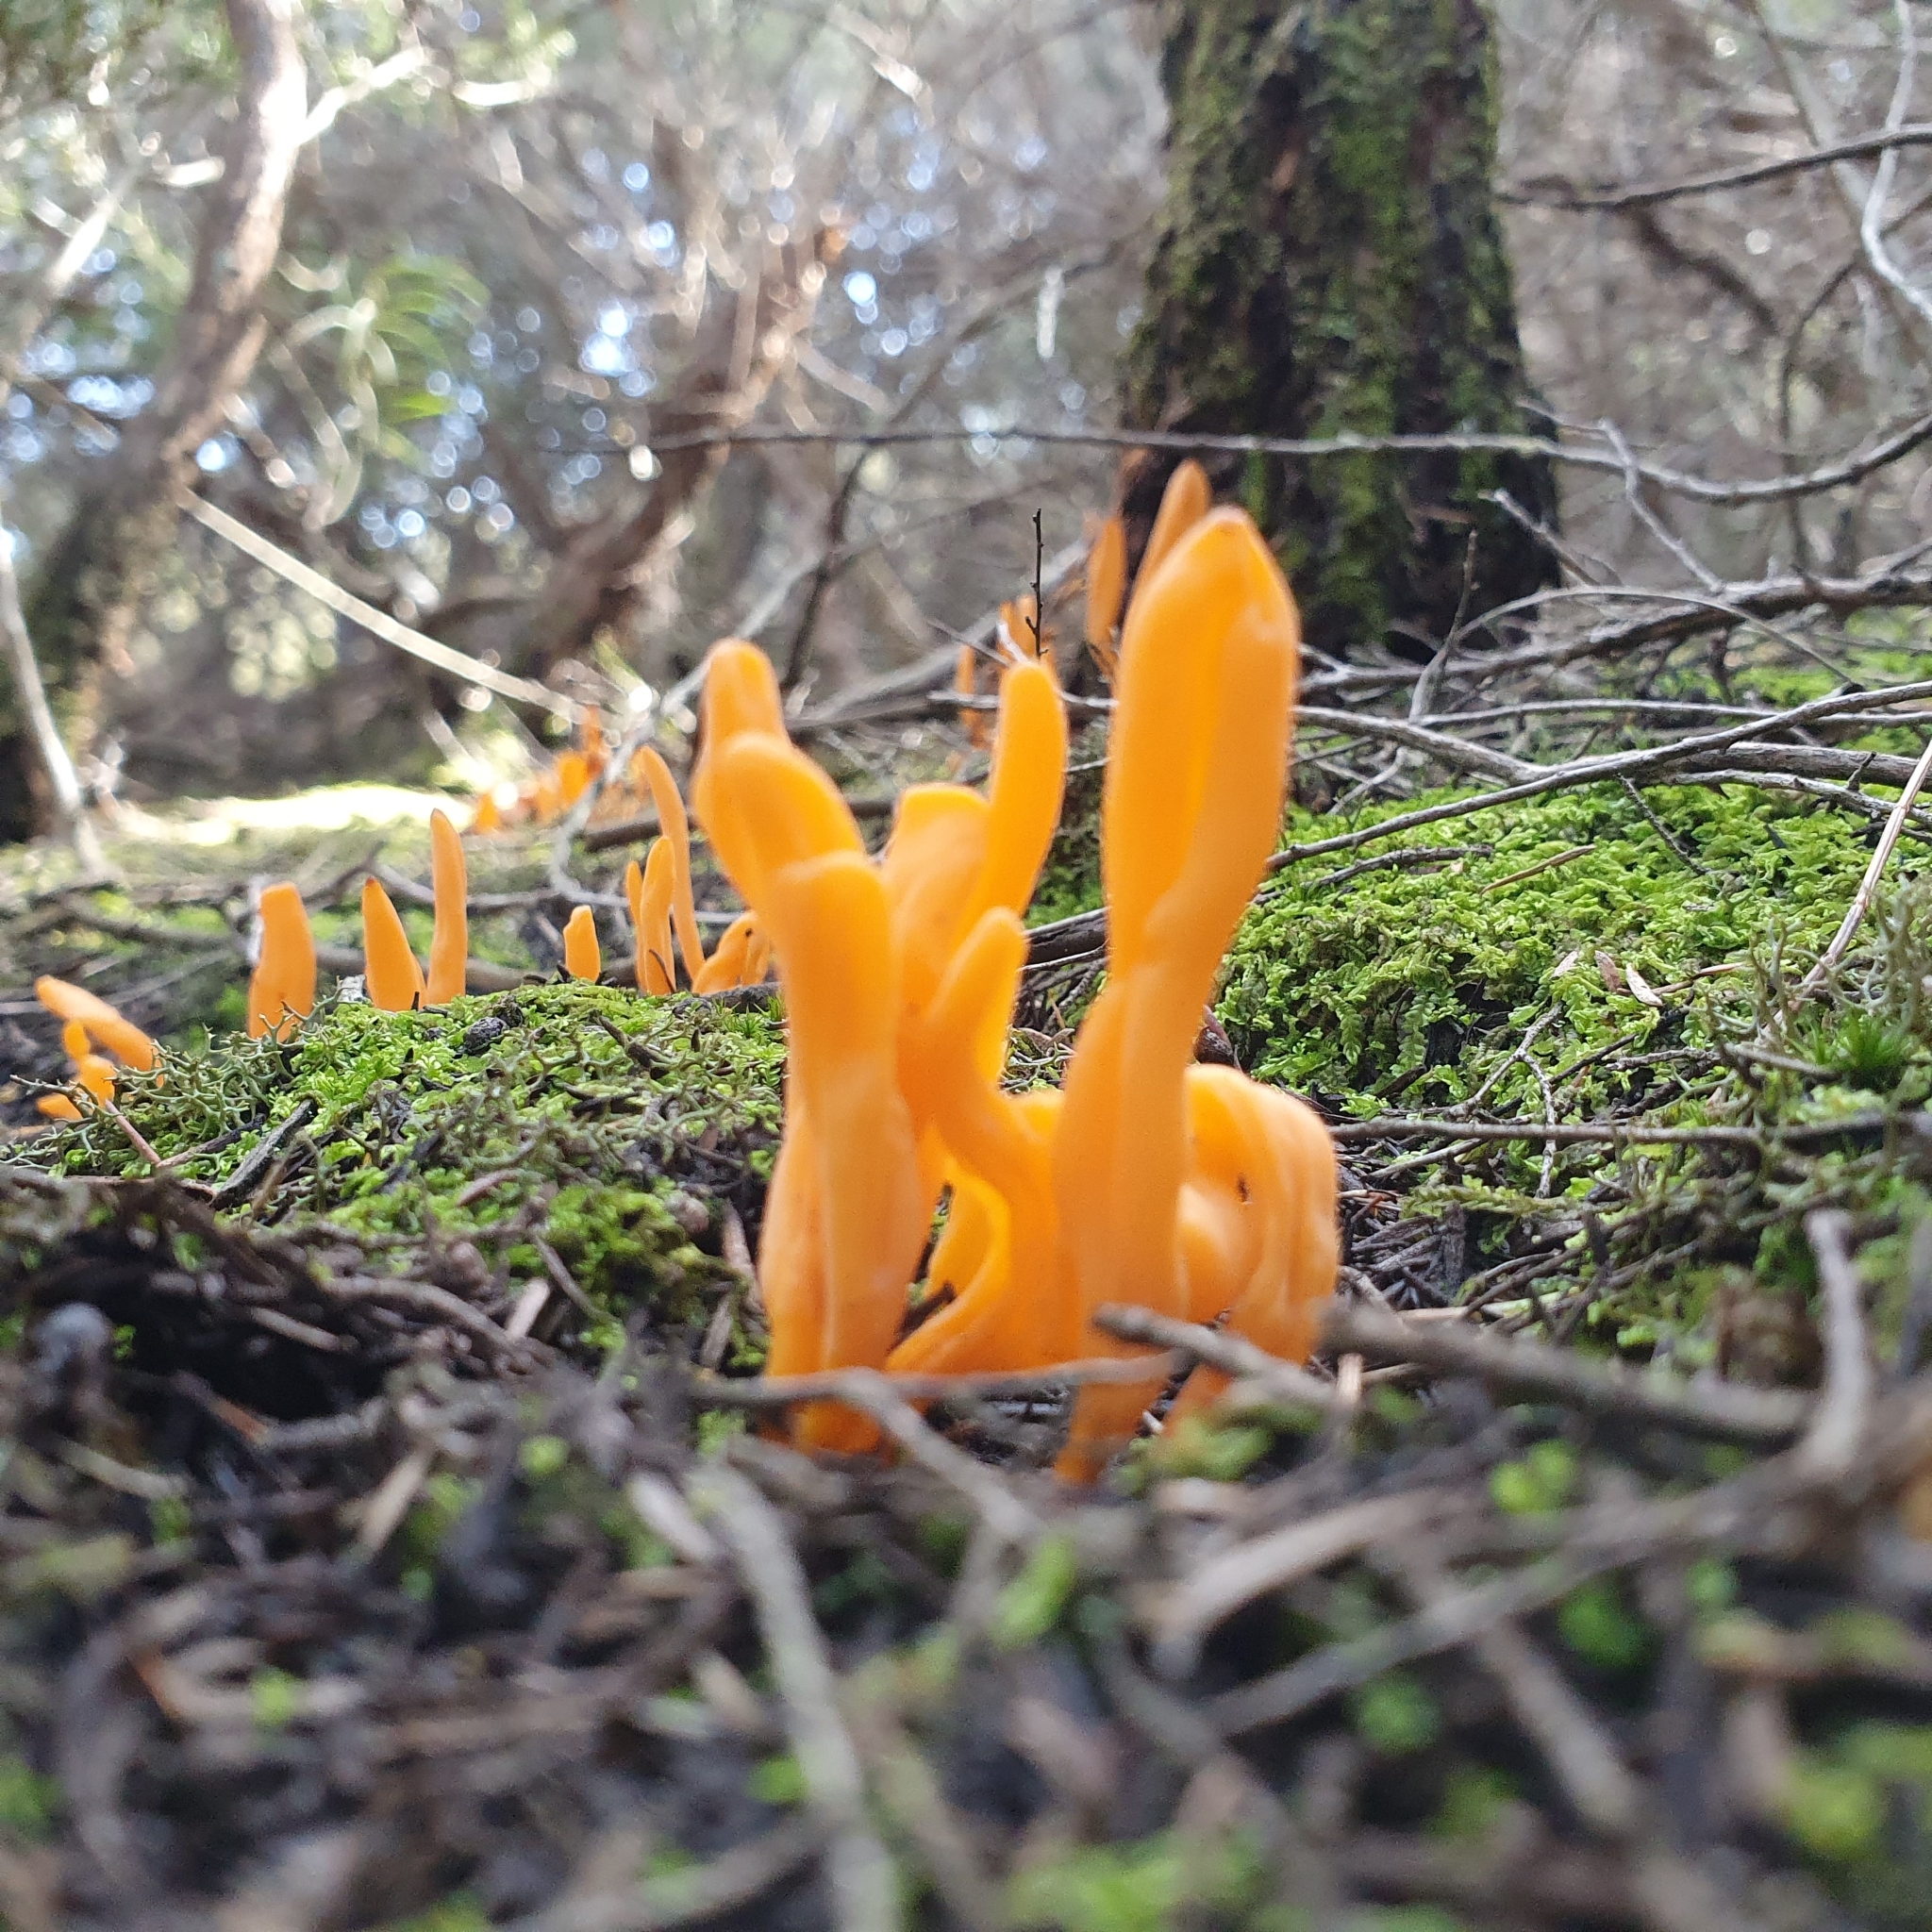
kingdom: Fungi
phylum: Basidiomycota
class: Agaricomycetes
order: Agaricales
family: Clavariaceae
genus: Clavulinopsis
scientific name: Clavulinopsis sulcata
